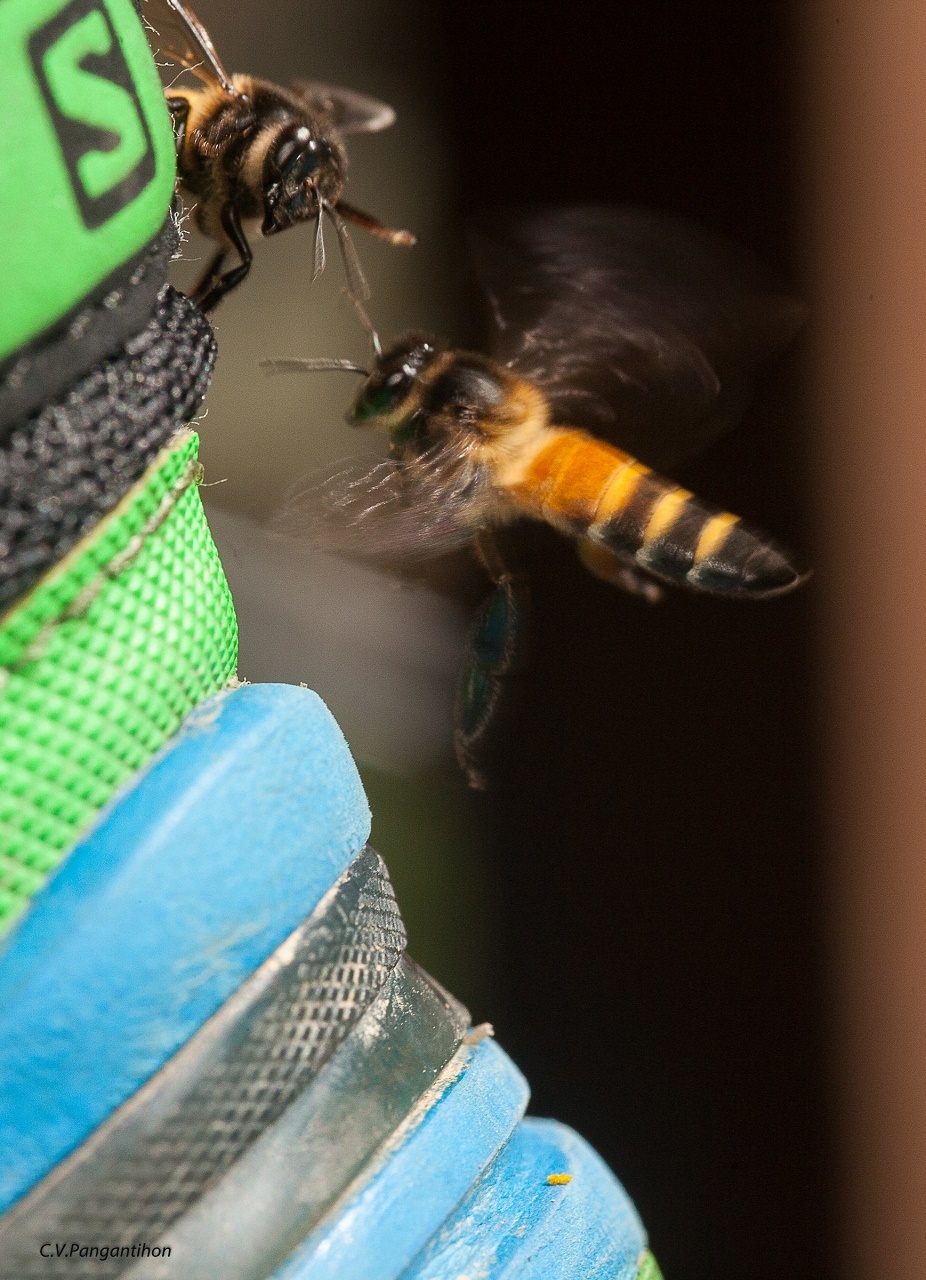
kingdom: Animalia
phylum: Arthropoda
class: Insecta
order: Hymenoptera
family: Apidae
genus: Apis
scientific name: Apis dorsata
